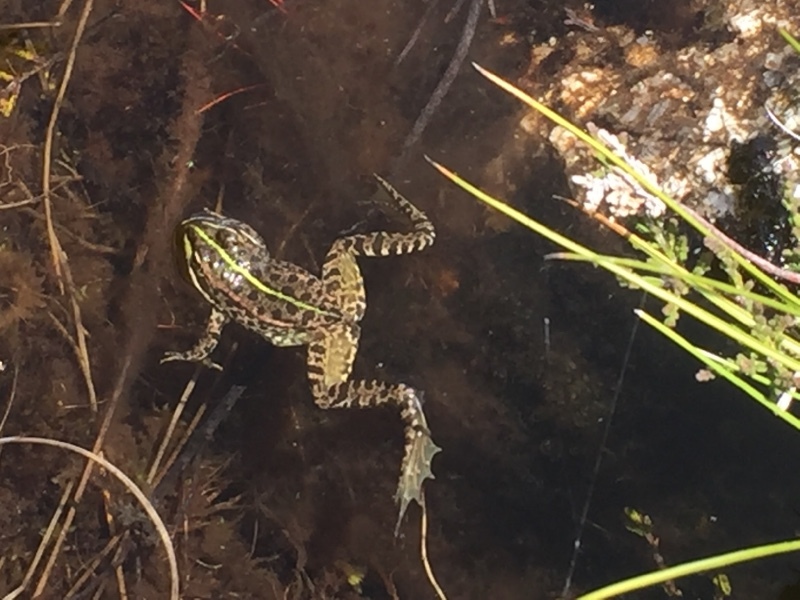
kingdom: Animalia
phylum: Chordata
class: Amphibia
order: Anura
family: Ranidae
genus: Pelophylax
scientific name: Pelophylax perezi
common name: Perez's frog
